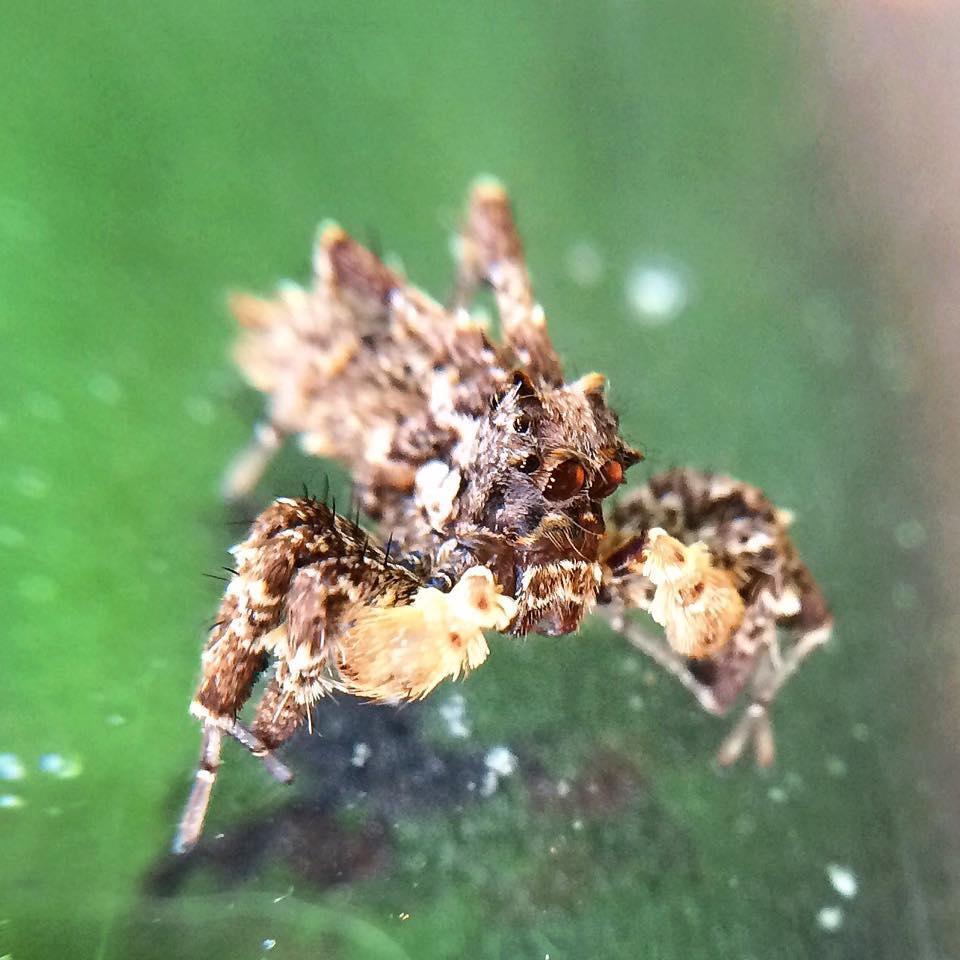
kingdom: Animalia
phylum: Arthropoda
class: Arachnida
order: Araneae
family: Salticidae
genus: Portia
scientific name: Portia schultzi
